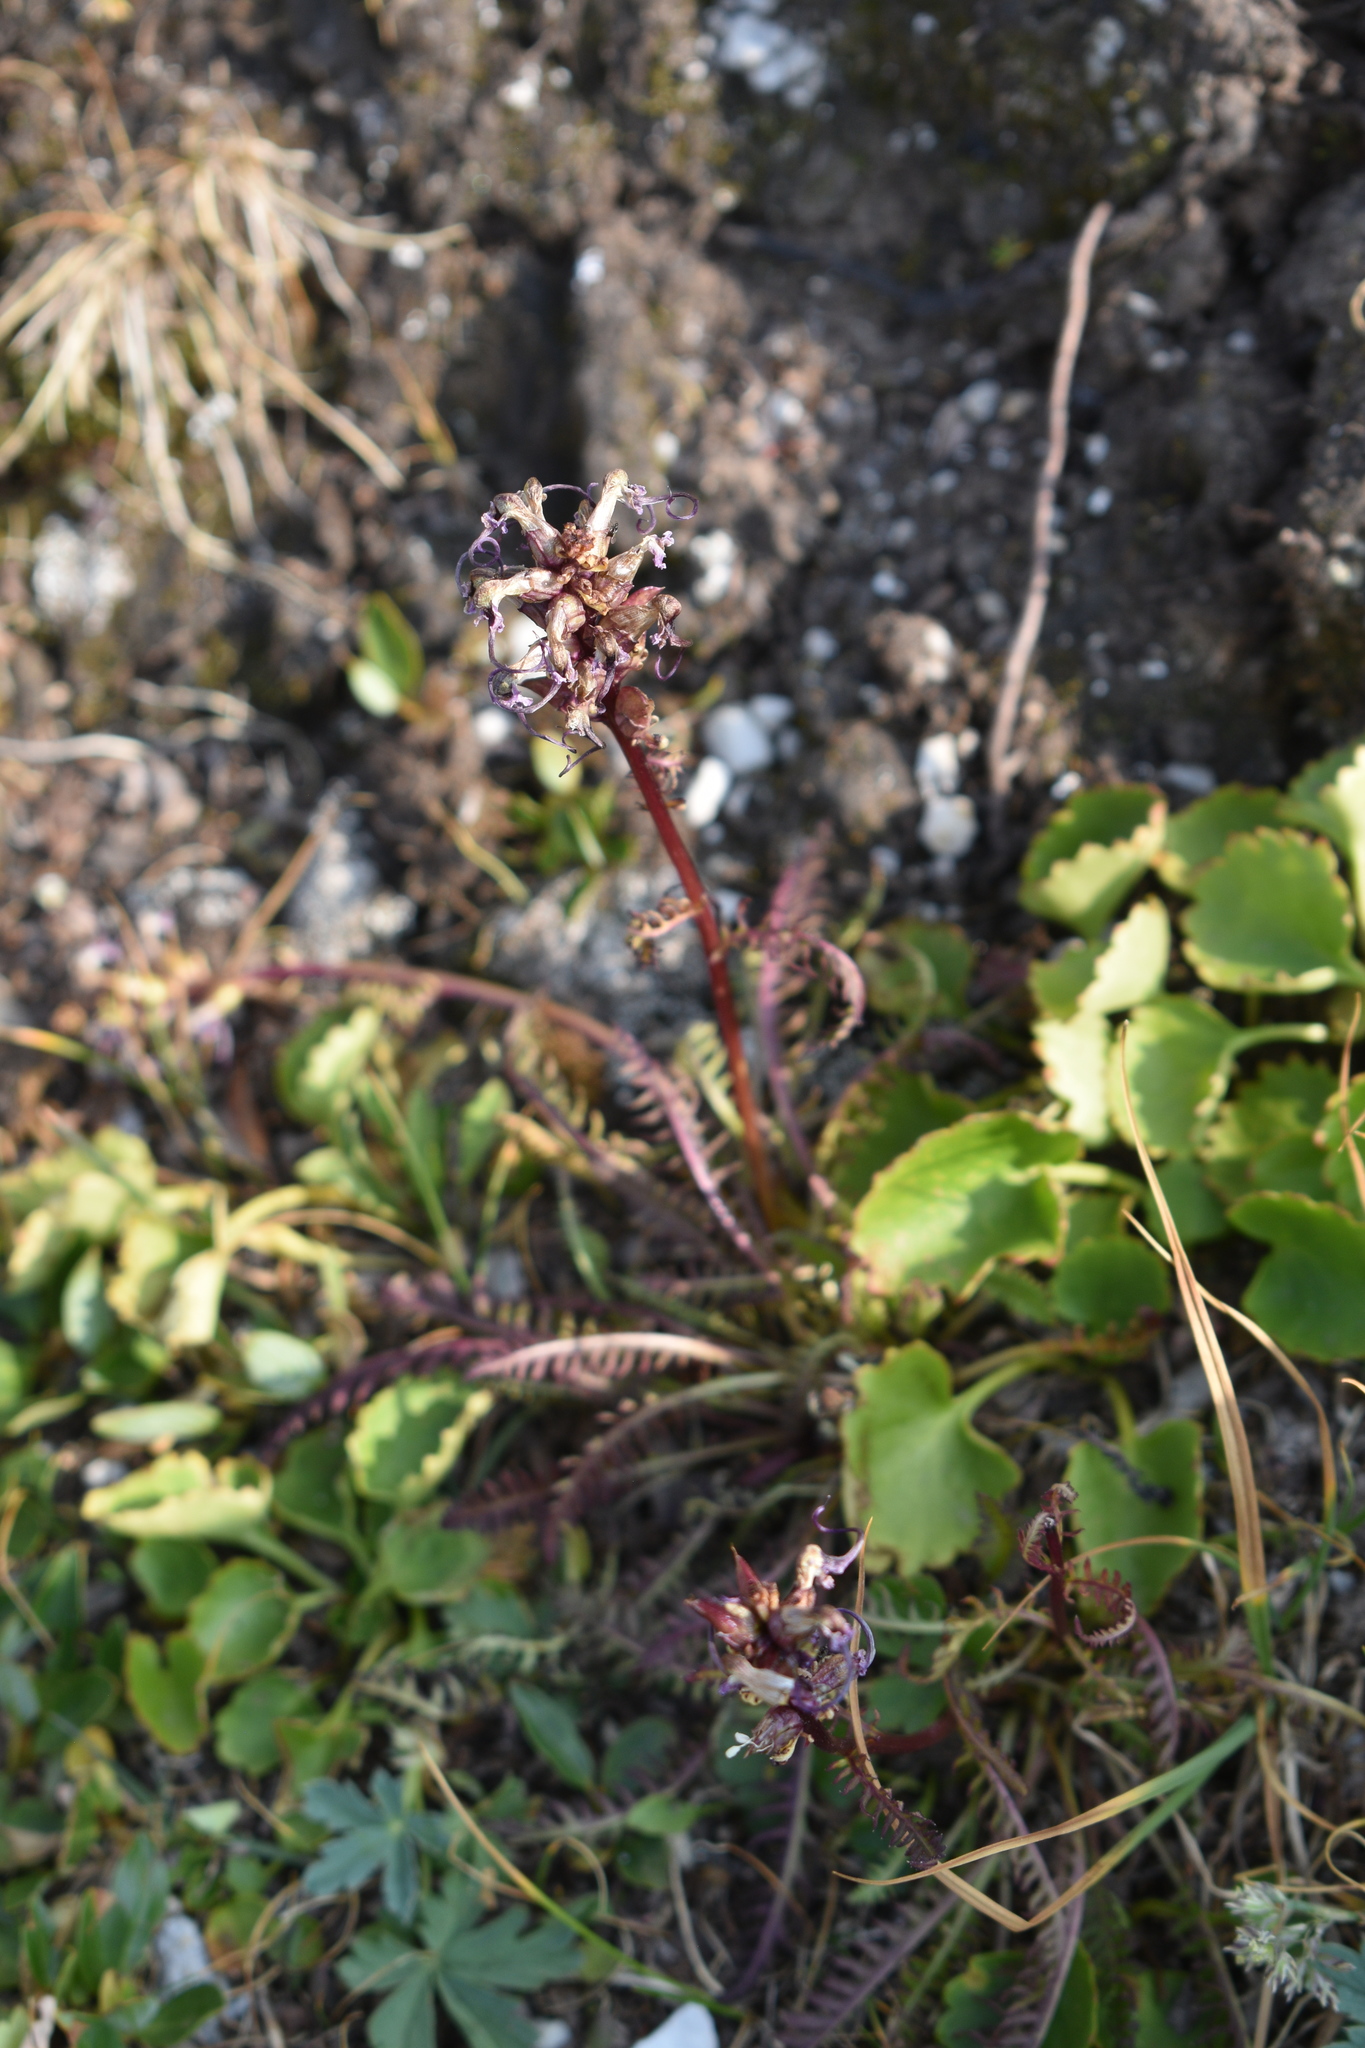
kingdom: Plantae
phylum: Tracheophyta
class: Magnoliopsida
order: Lamiales
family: Orobanchaceae
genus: Pedicularis
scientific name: Pedicularis groenlandica
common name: Elephant's-head
